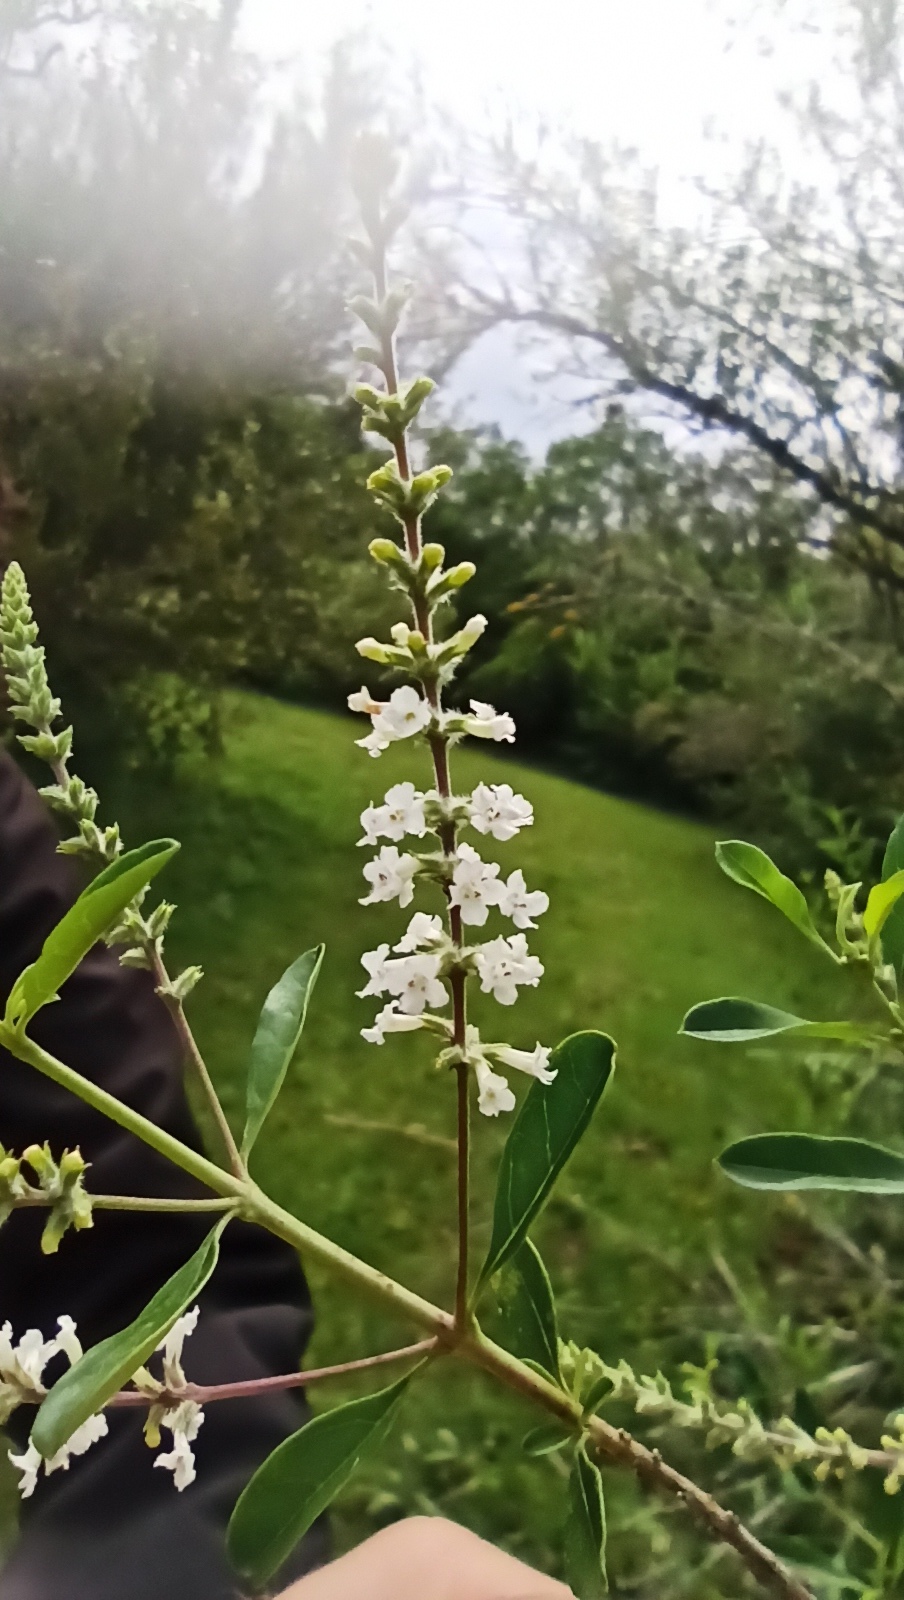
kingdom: Plantae
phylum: Tracheophyta
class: Magnoliopsida
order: Lamiales
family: Verbenaceae
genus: Aloysia
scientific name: Aloysia gratissima
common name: Common bee-brush
